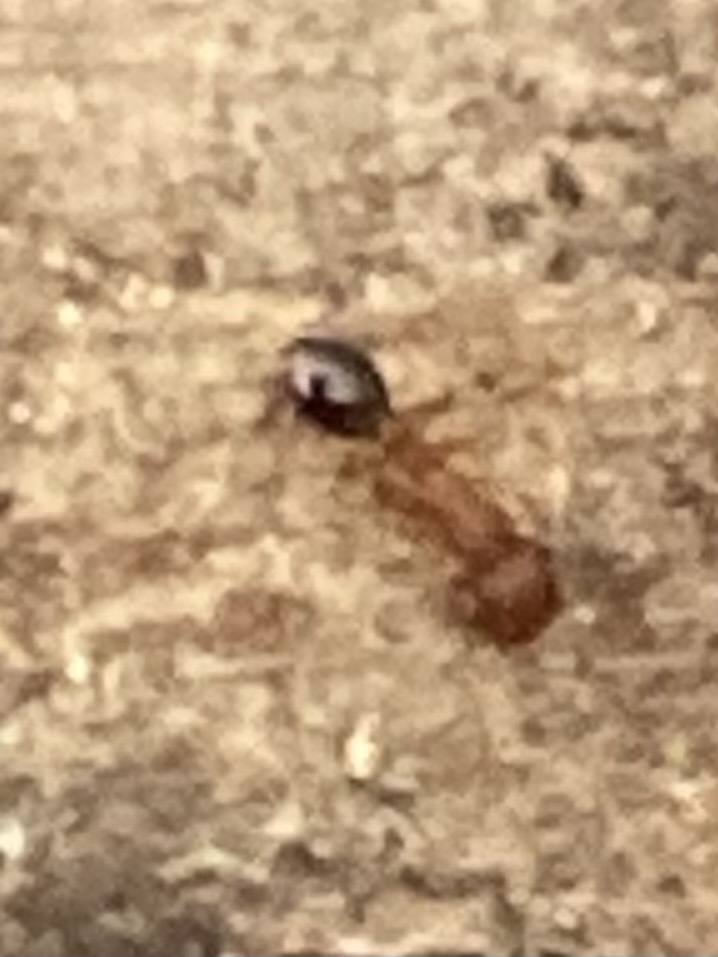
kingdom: Animalia
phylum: Arthropoda
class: Insecta
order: Hymenoptera
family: Formicidae
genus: Tetramorium
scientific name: Tetramorium bicarinatum
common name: Guinea ant
